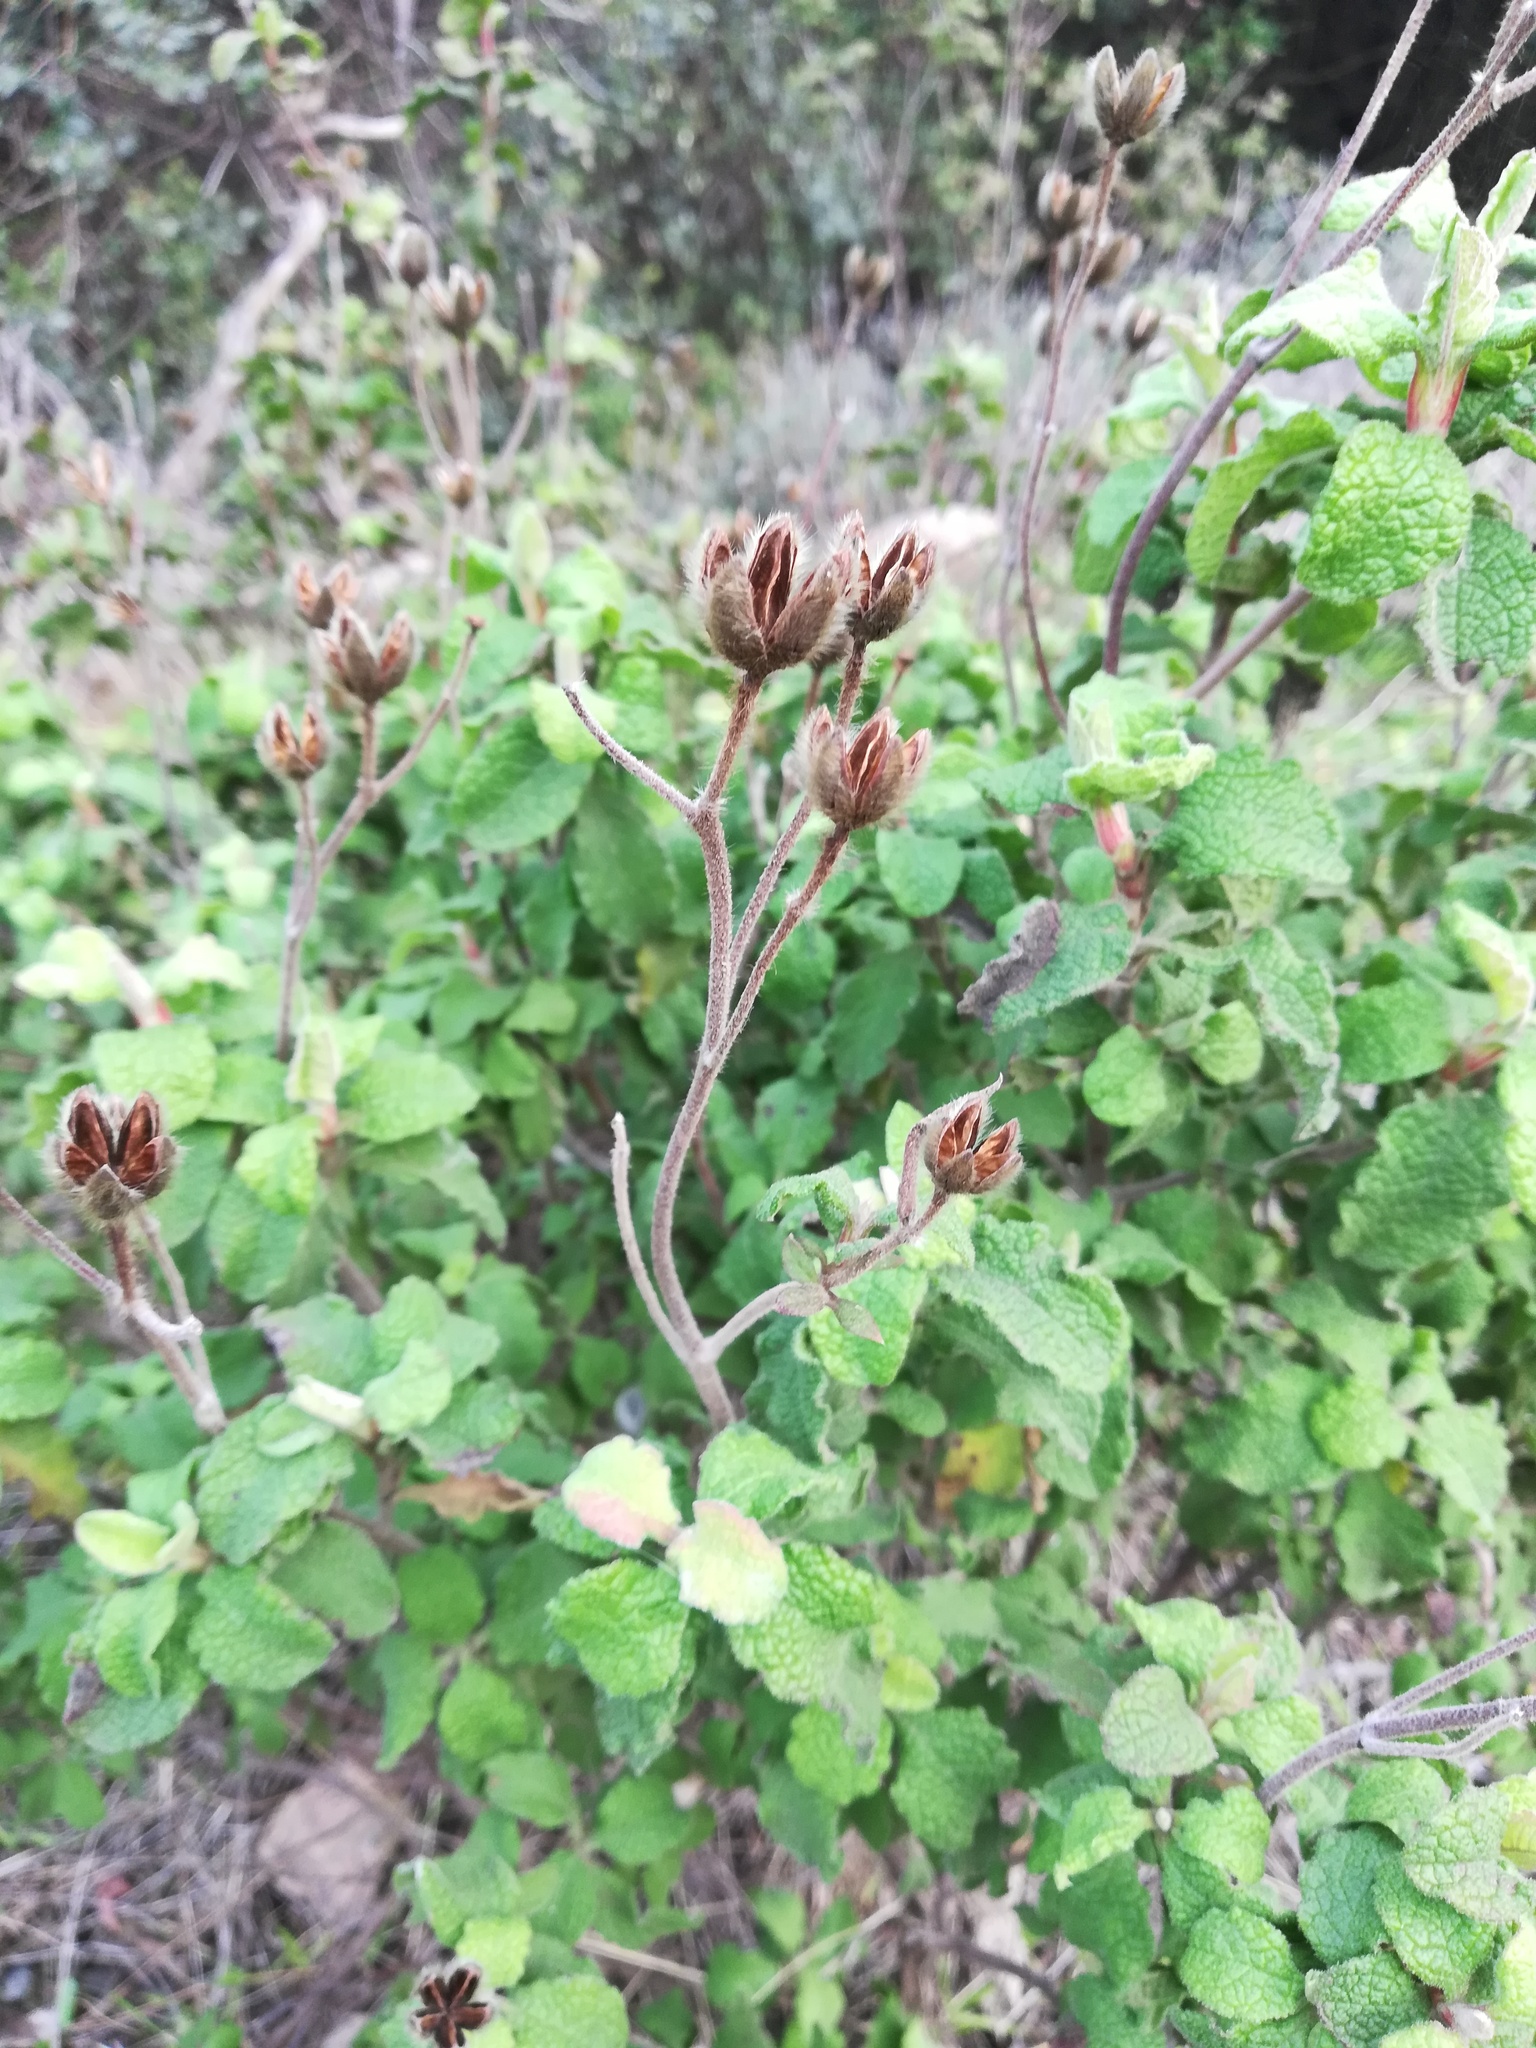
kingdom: Plantae
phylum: Tracheophyta
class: Magnoliopsida
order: Malvales
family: Cistaceae
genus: Cistus
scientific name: Cistus creticus
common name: Cretan rockrose
